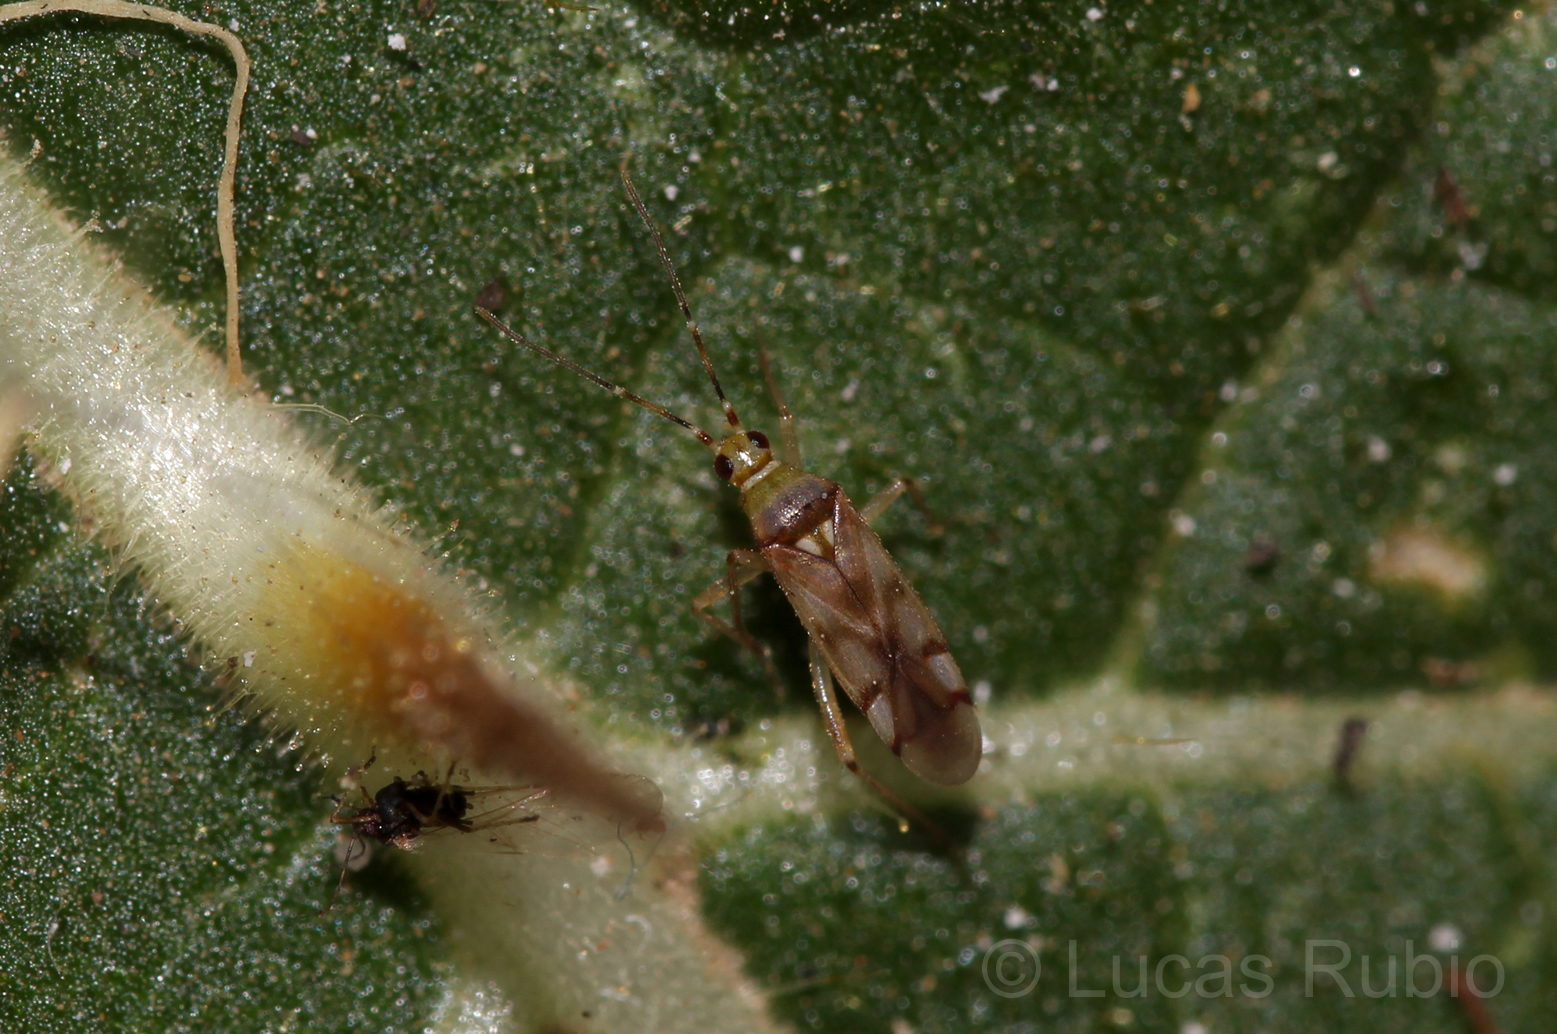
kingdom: Animalia
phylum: Arthropoda
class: Insecta
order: Hemiptera
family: Miridae
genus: Campyloneuropsis
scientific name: Campyloneuropsis cincticornis
